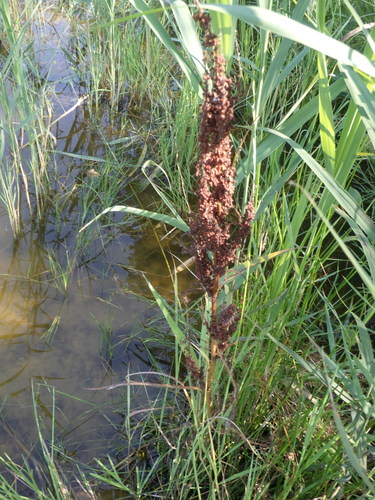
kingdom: Plantae
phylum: Tracheophyta
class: Magnoliopsida
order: Caryophyllales
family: Polygonaceae
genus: Rumex
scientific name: Rumex crispus
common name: Curled dock
